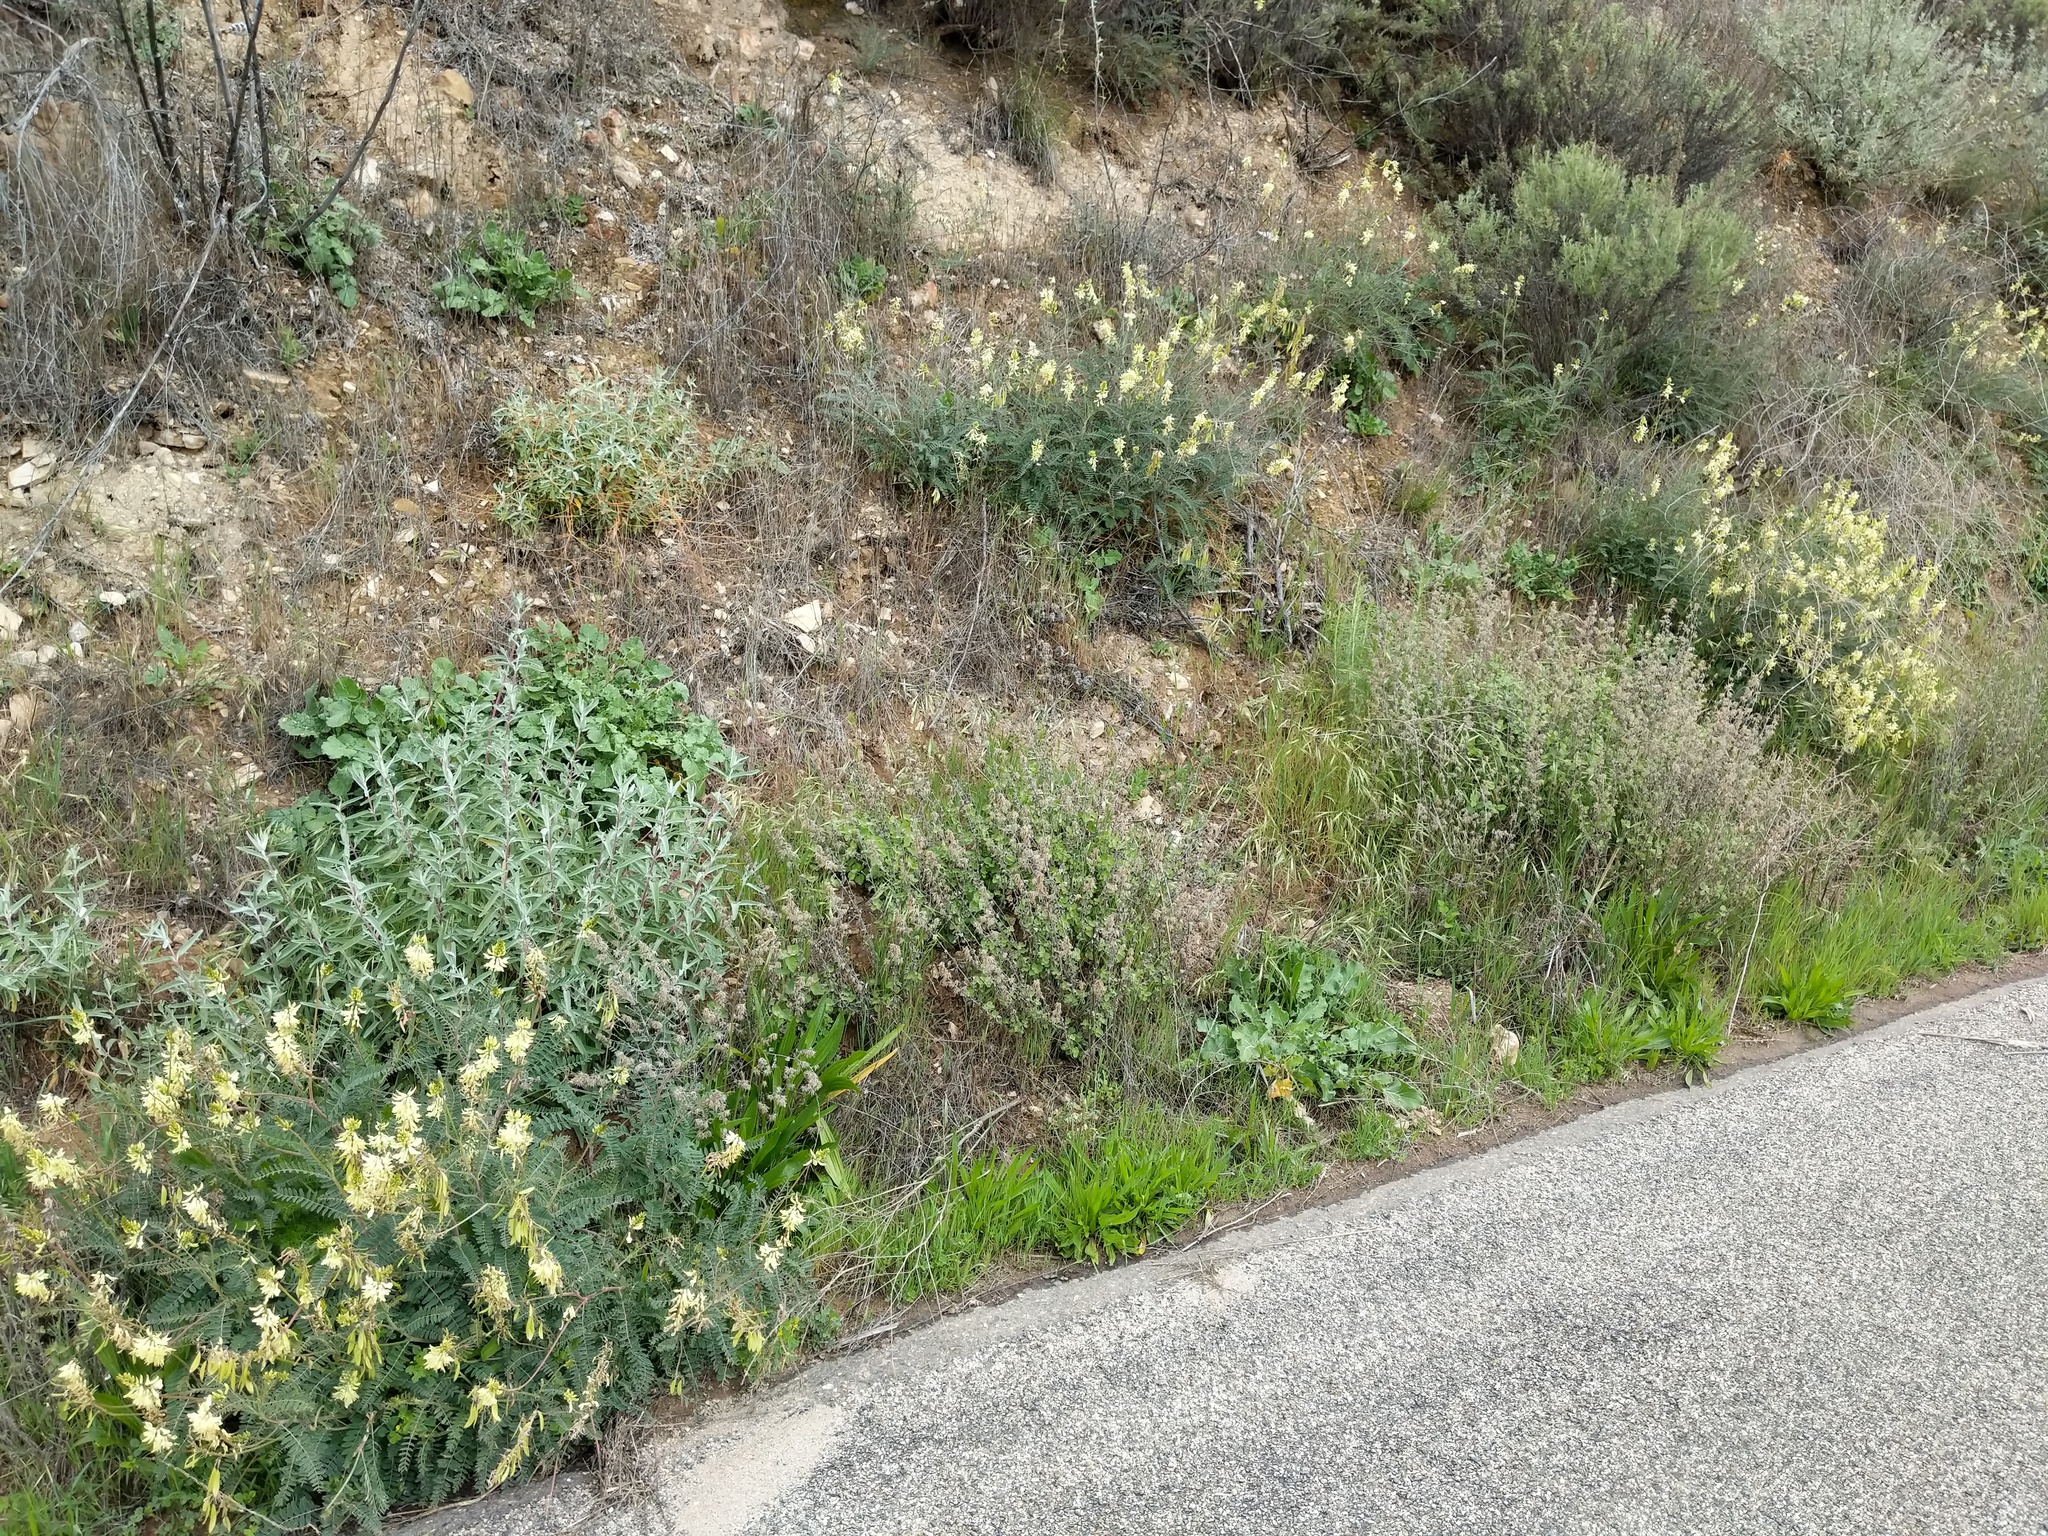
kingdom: Plantae
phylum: Tracheophyta
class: Magnoliopsida
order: Fabales
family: Fabaceae
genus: Astragalus
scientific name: Astragalus trichopodus
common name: Santa barbara milk-vetch
